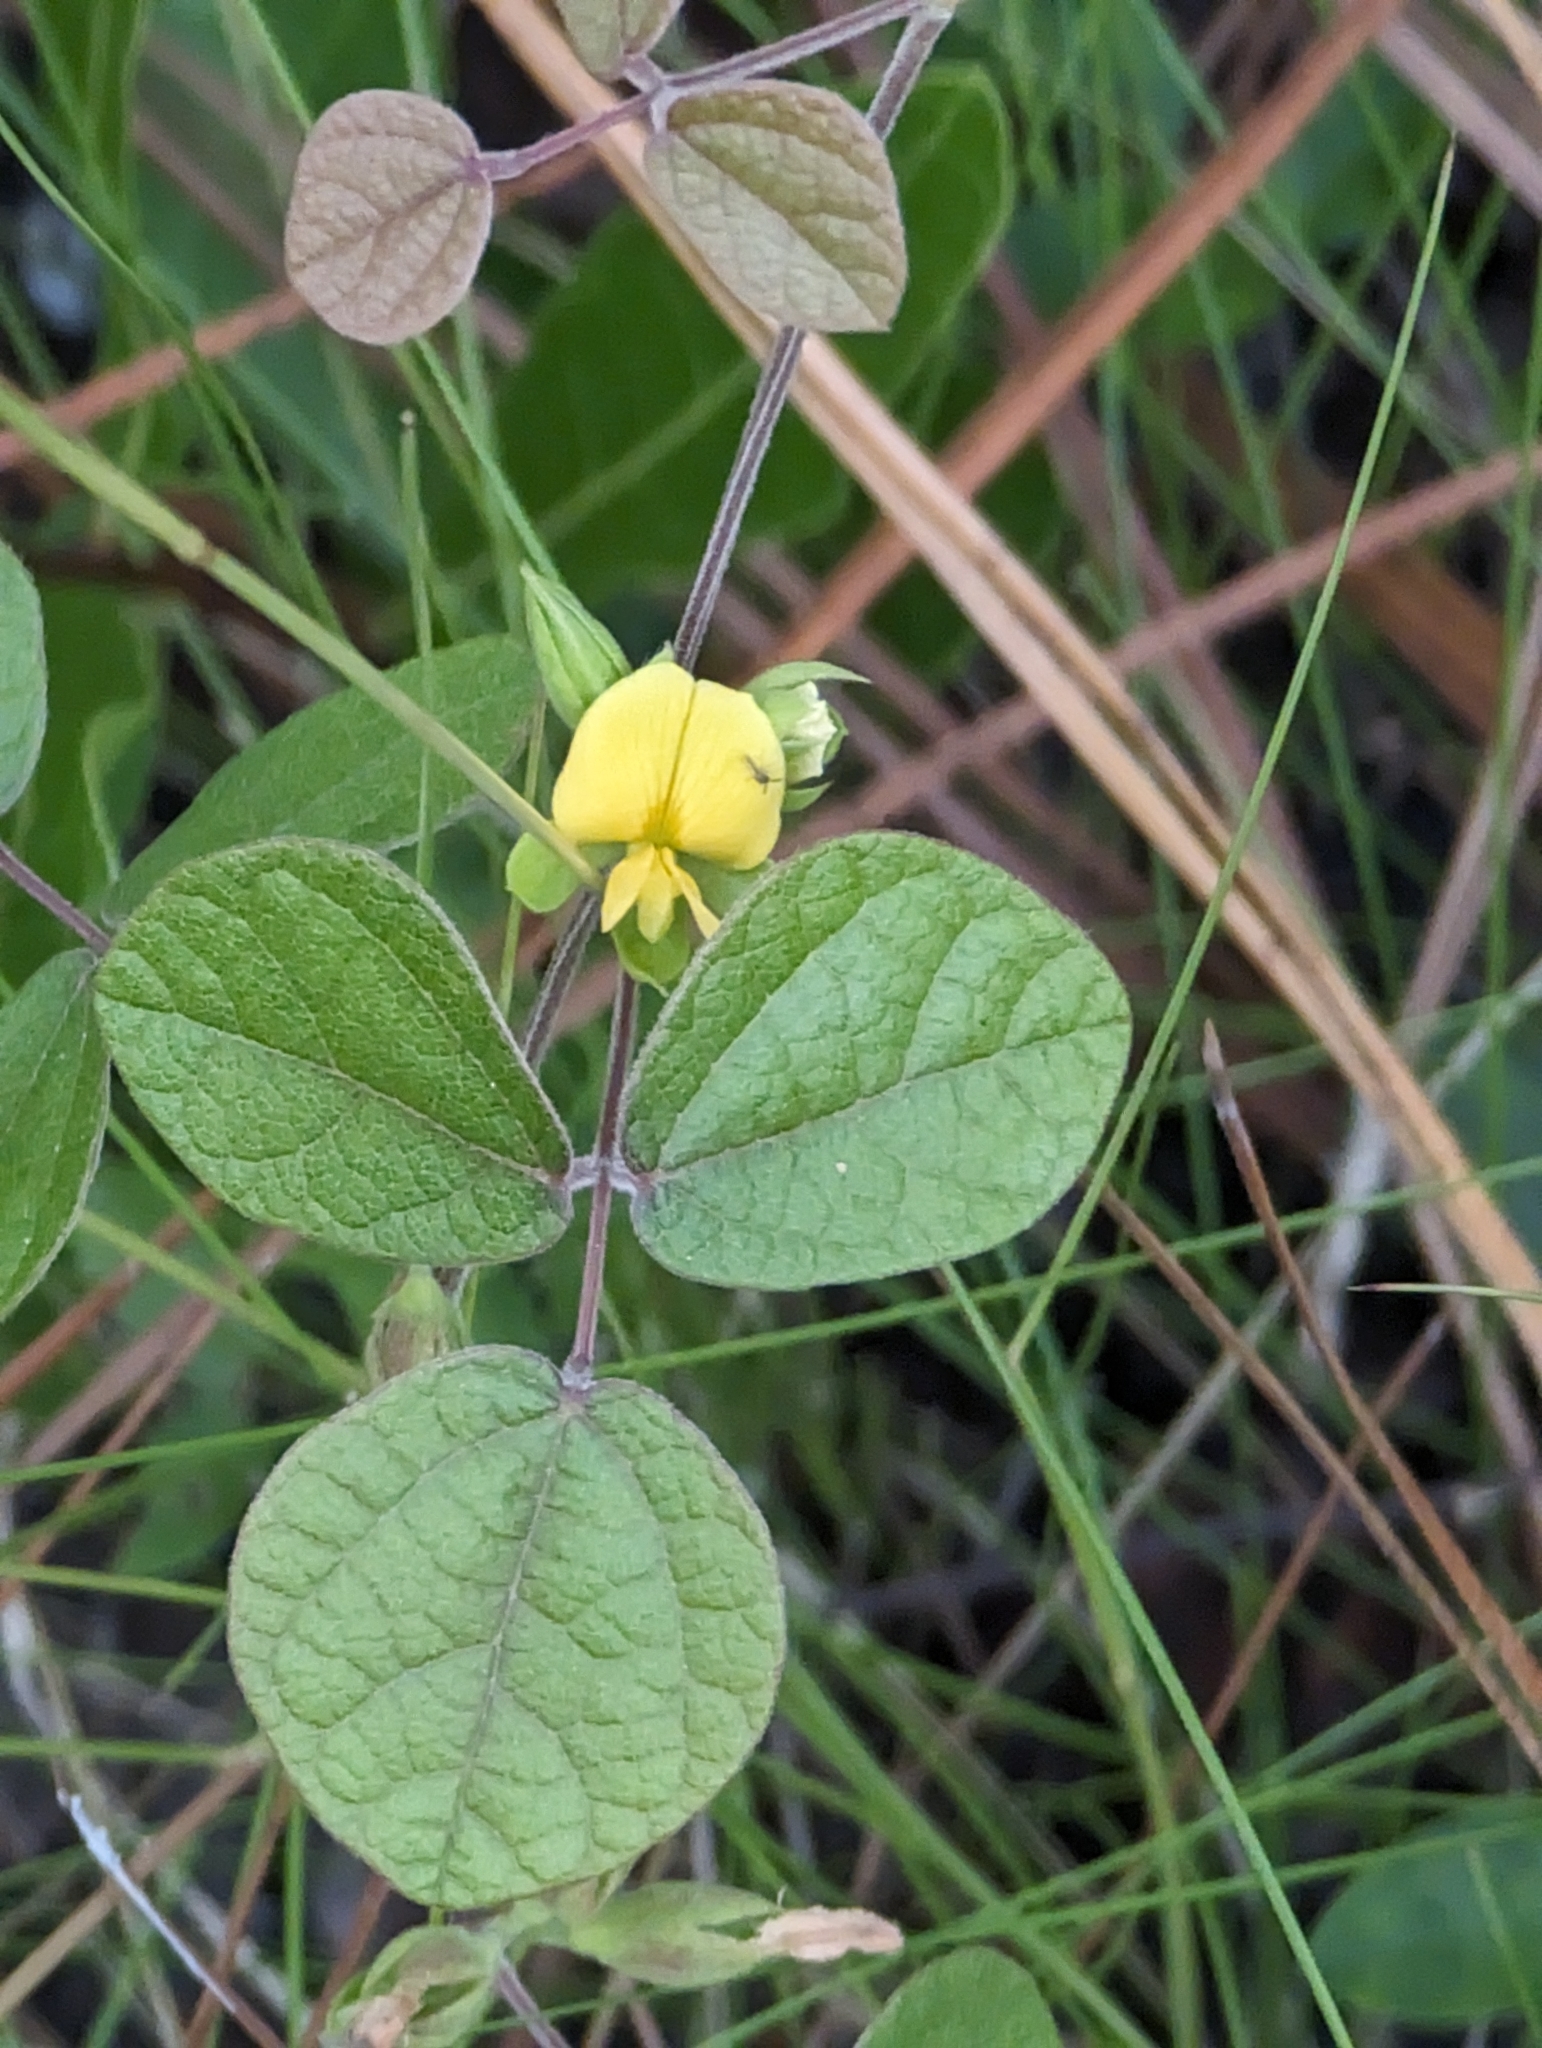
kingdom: Plantae
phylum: Tracheophyta
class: Magnoliopsida
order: Fabales
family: Fabaceae
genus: Rhynchosia
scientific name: Rhynchosia difformis
